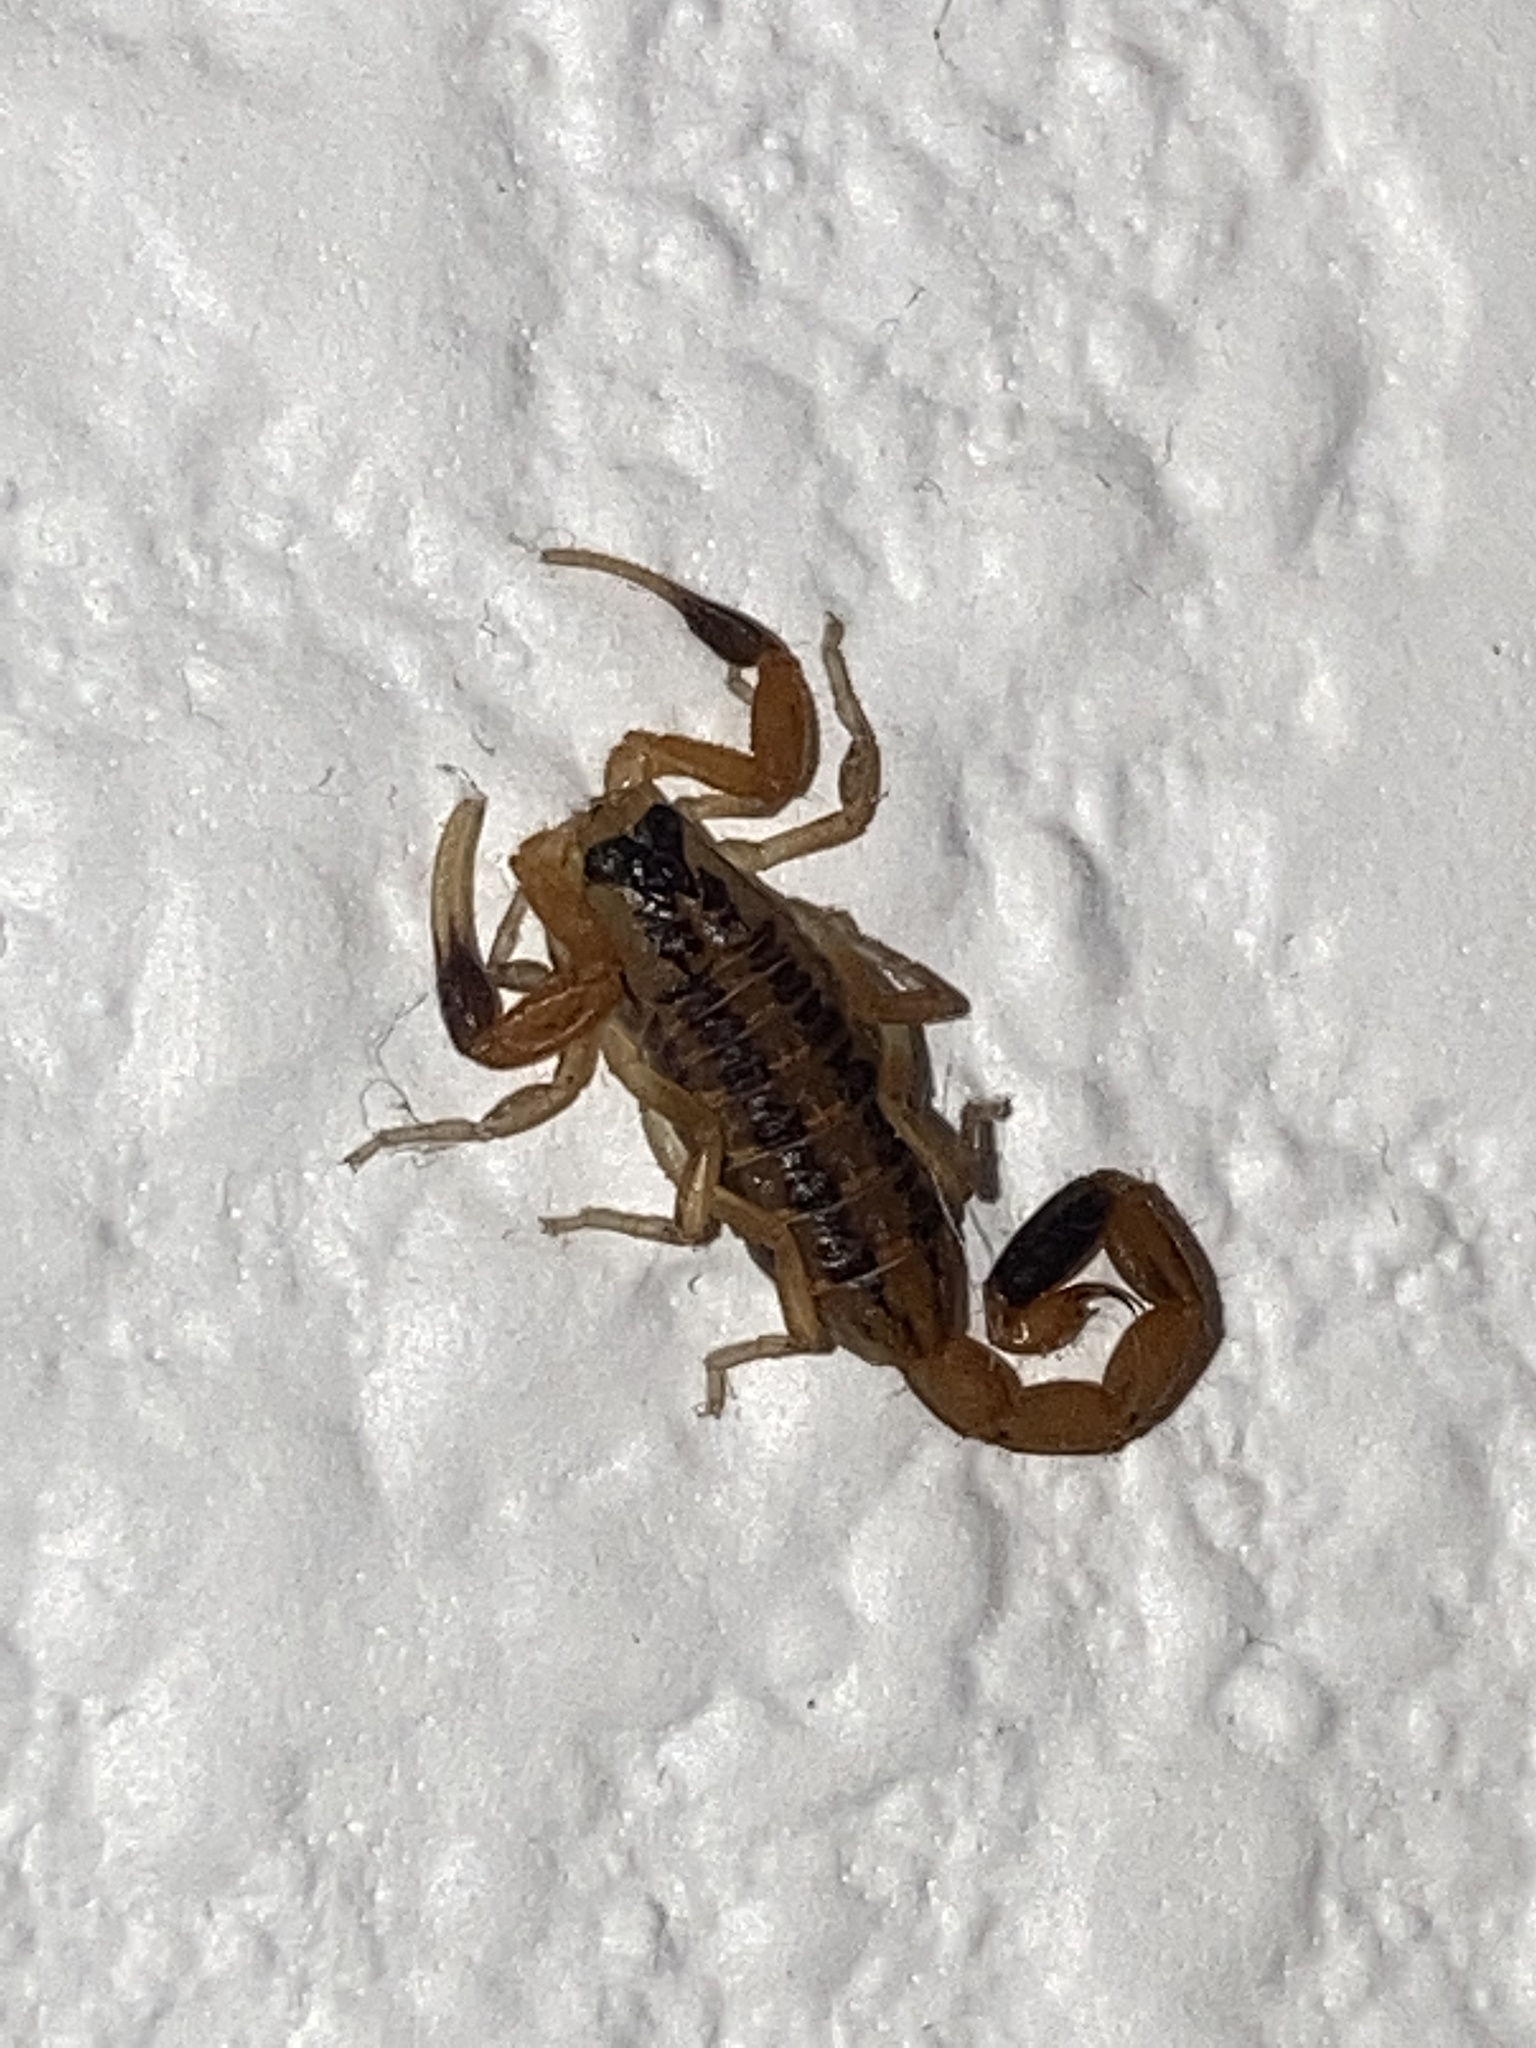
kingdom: Animalia
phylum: Arthropoda
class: Arachnida
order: Scorpiones
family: Buthidae
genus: Centruroides
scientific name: Centruroides vittatus
